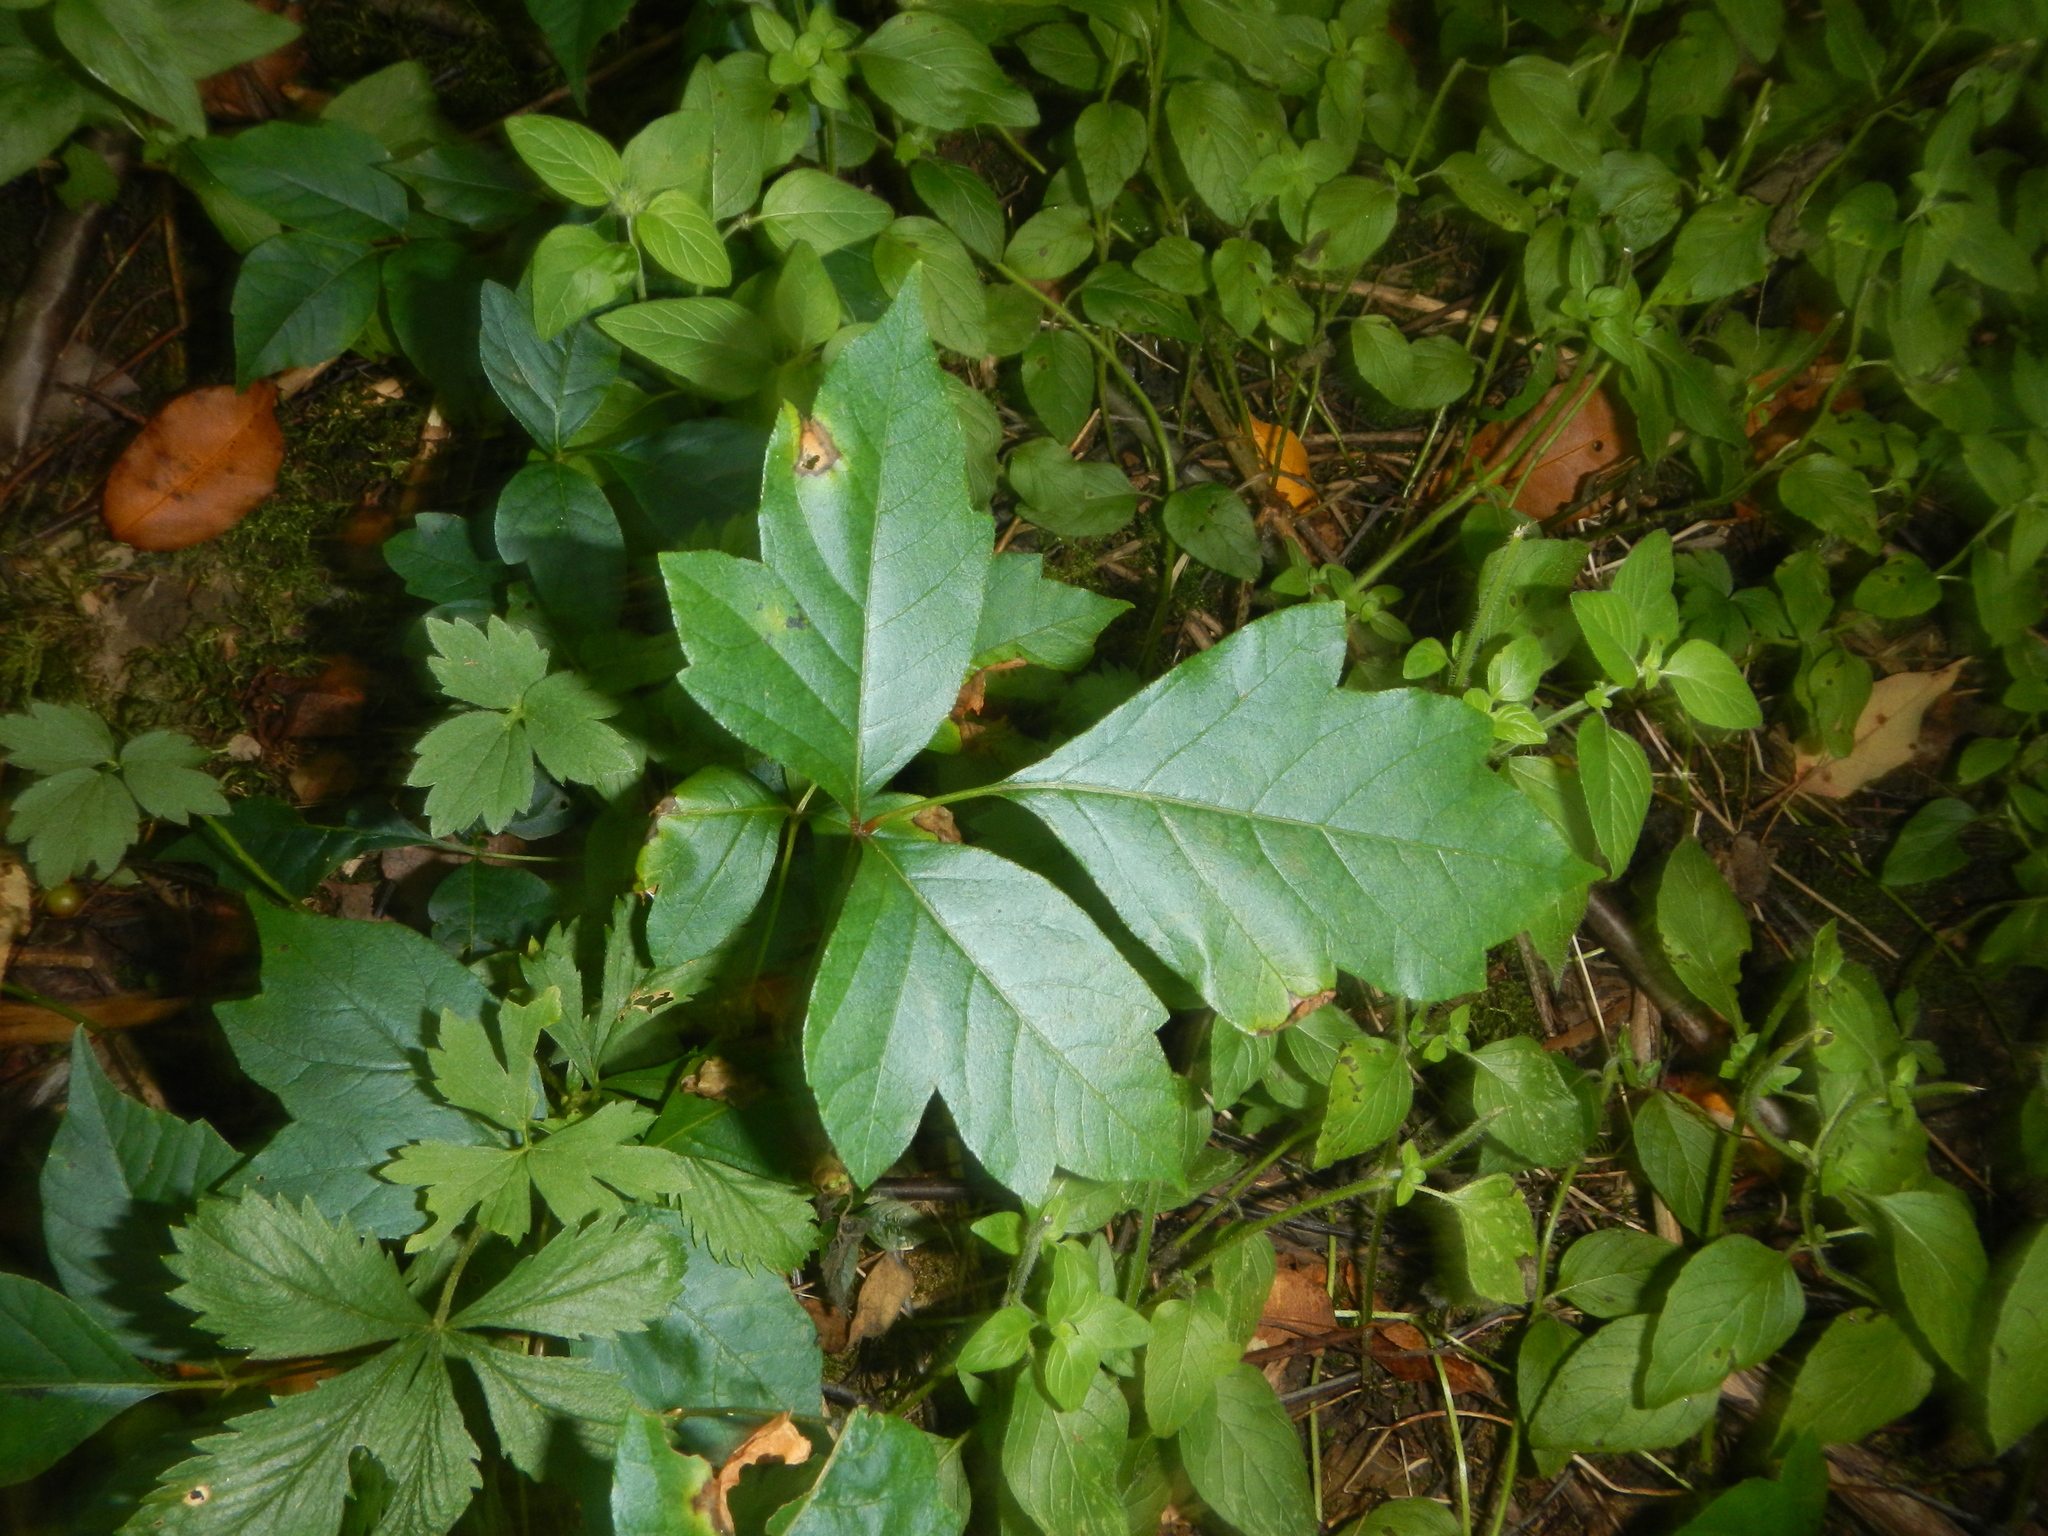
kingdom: Plantae
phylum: Tracheophyta
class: Magnoliopsida
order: Sapindales
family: Anacardiaceae
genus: Toxicodendron
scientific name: Toxicodendron radicans
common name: Poison ivy
